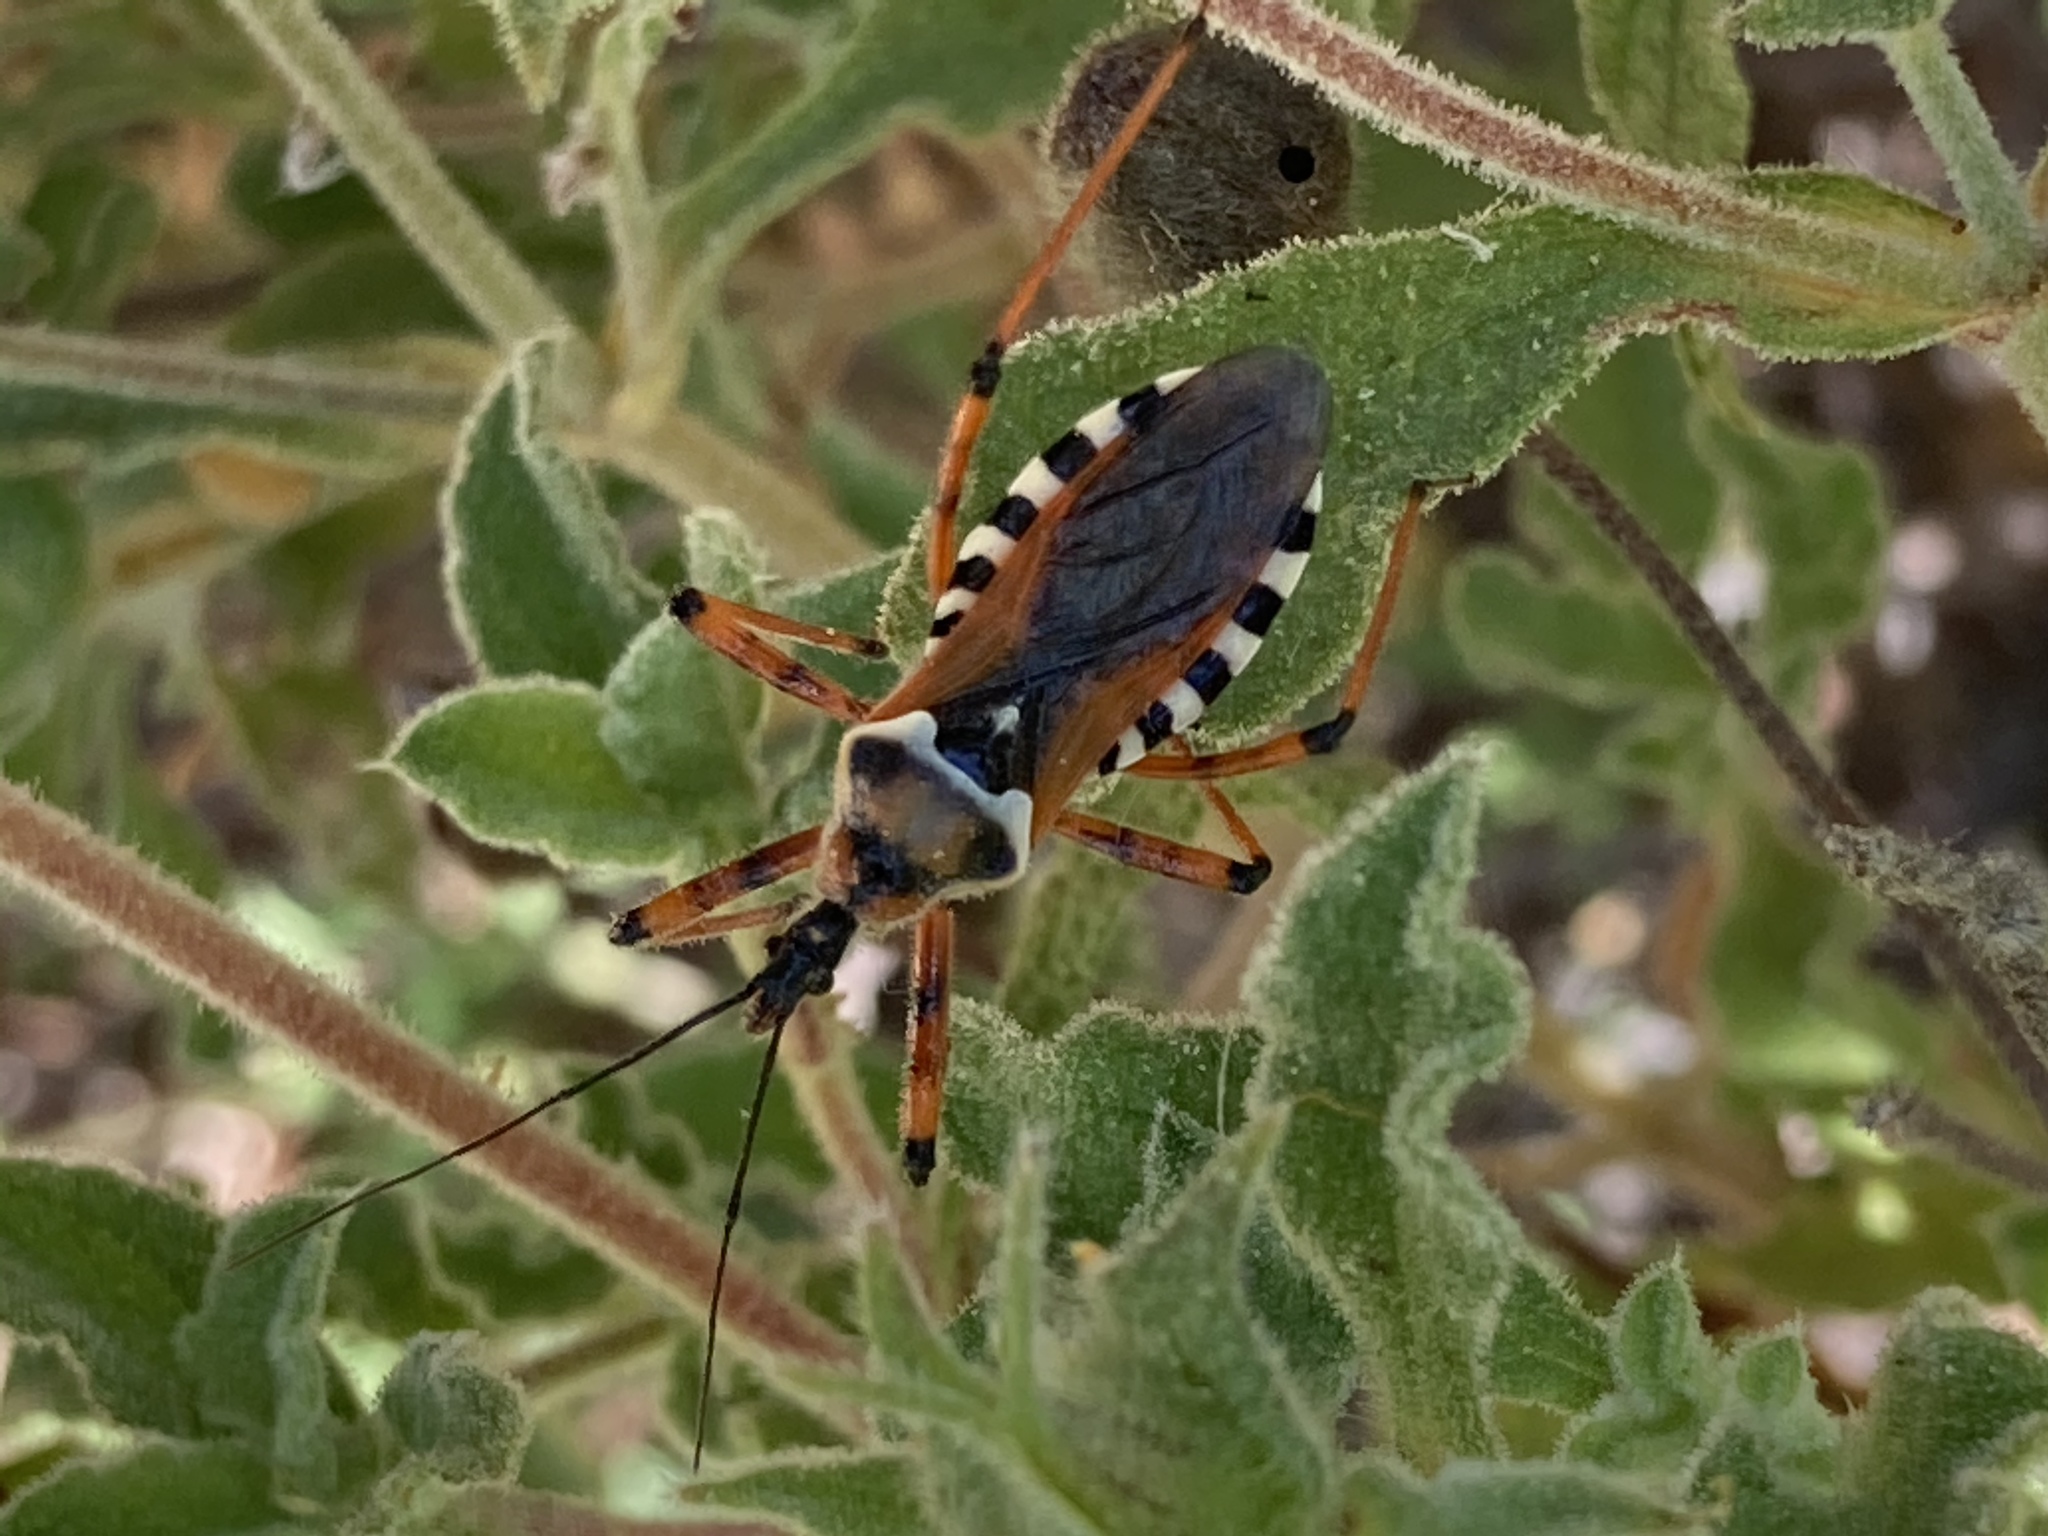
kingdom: Animalia
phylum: Arthropoda
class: Insecta
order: Hemiptera
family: Reduviidae
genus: Rhynocoris
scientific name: Rhynocoris punctiventris
